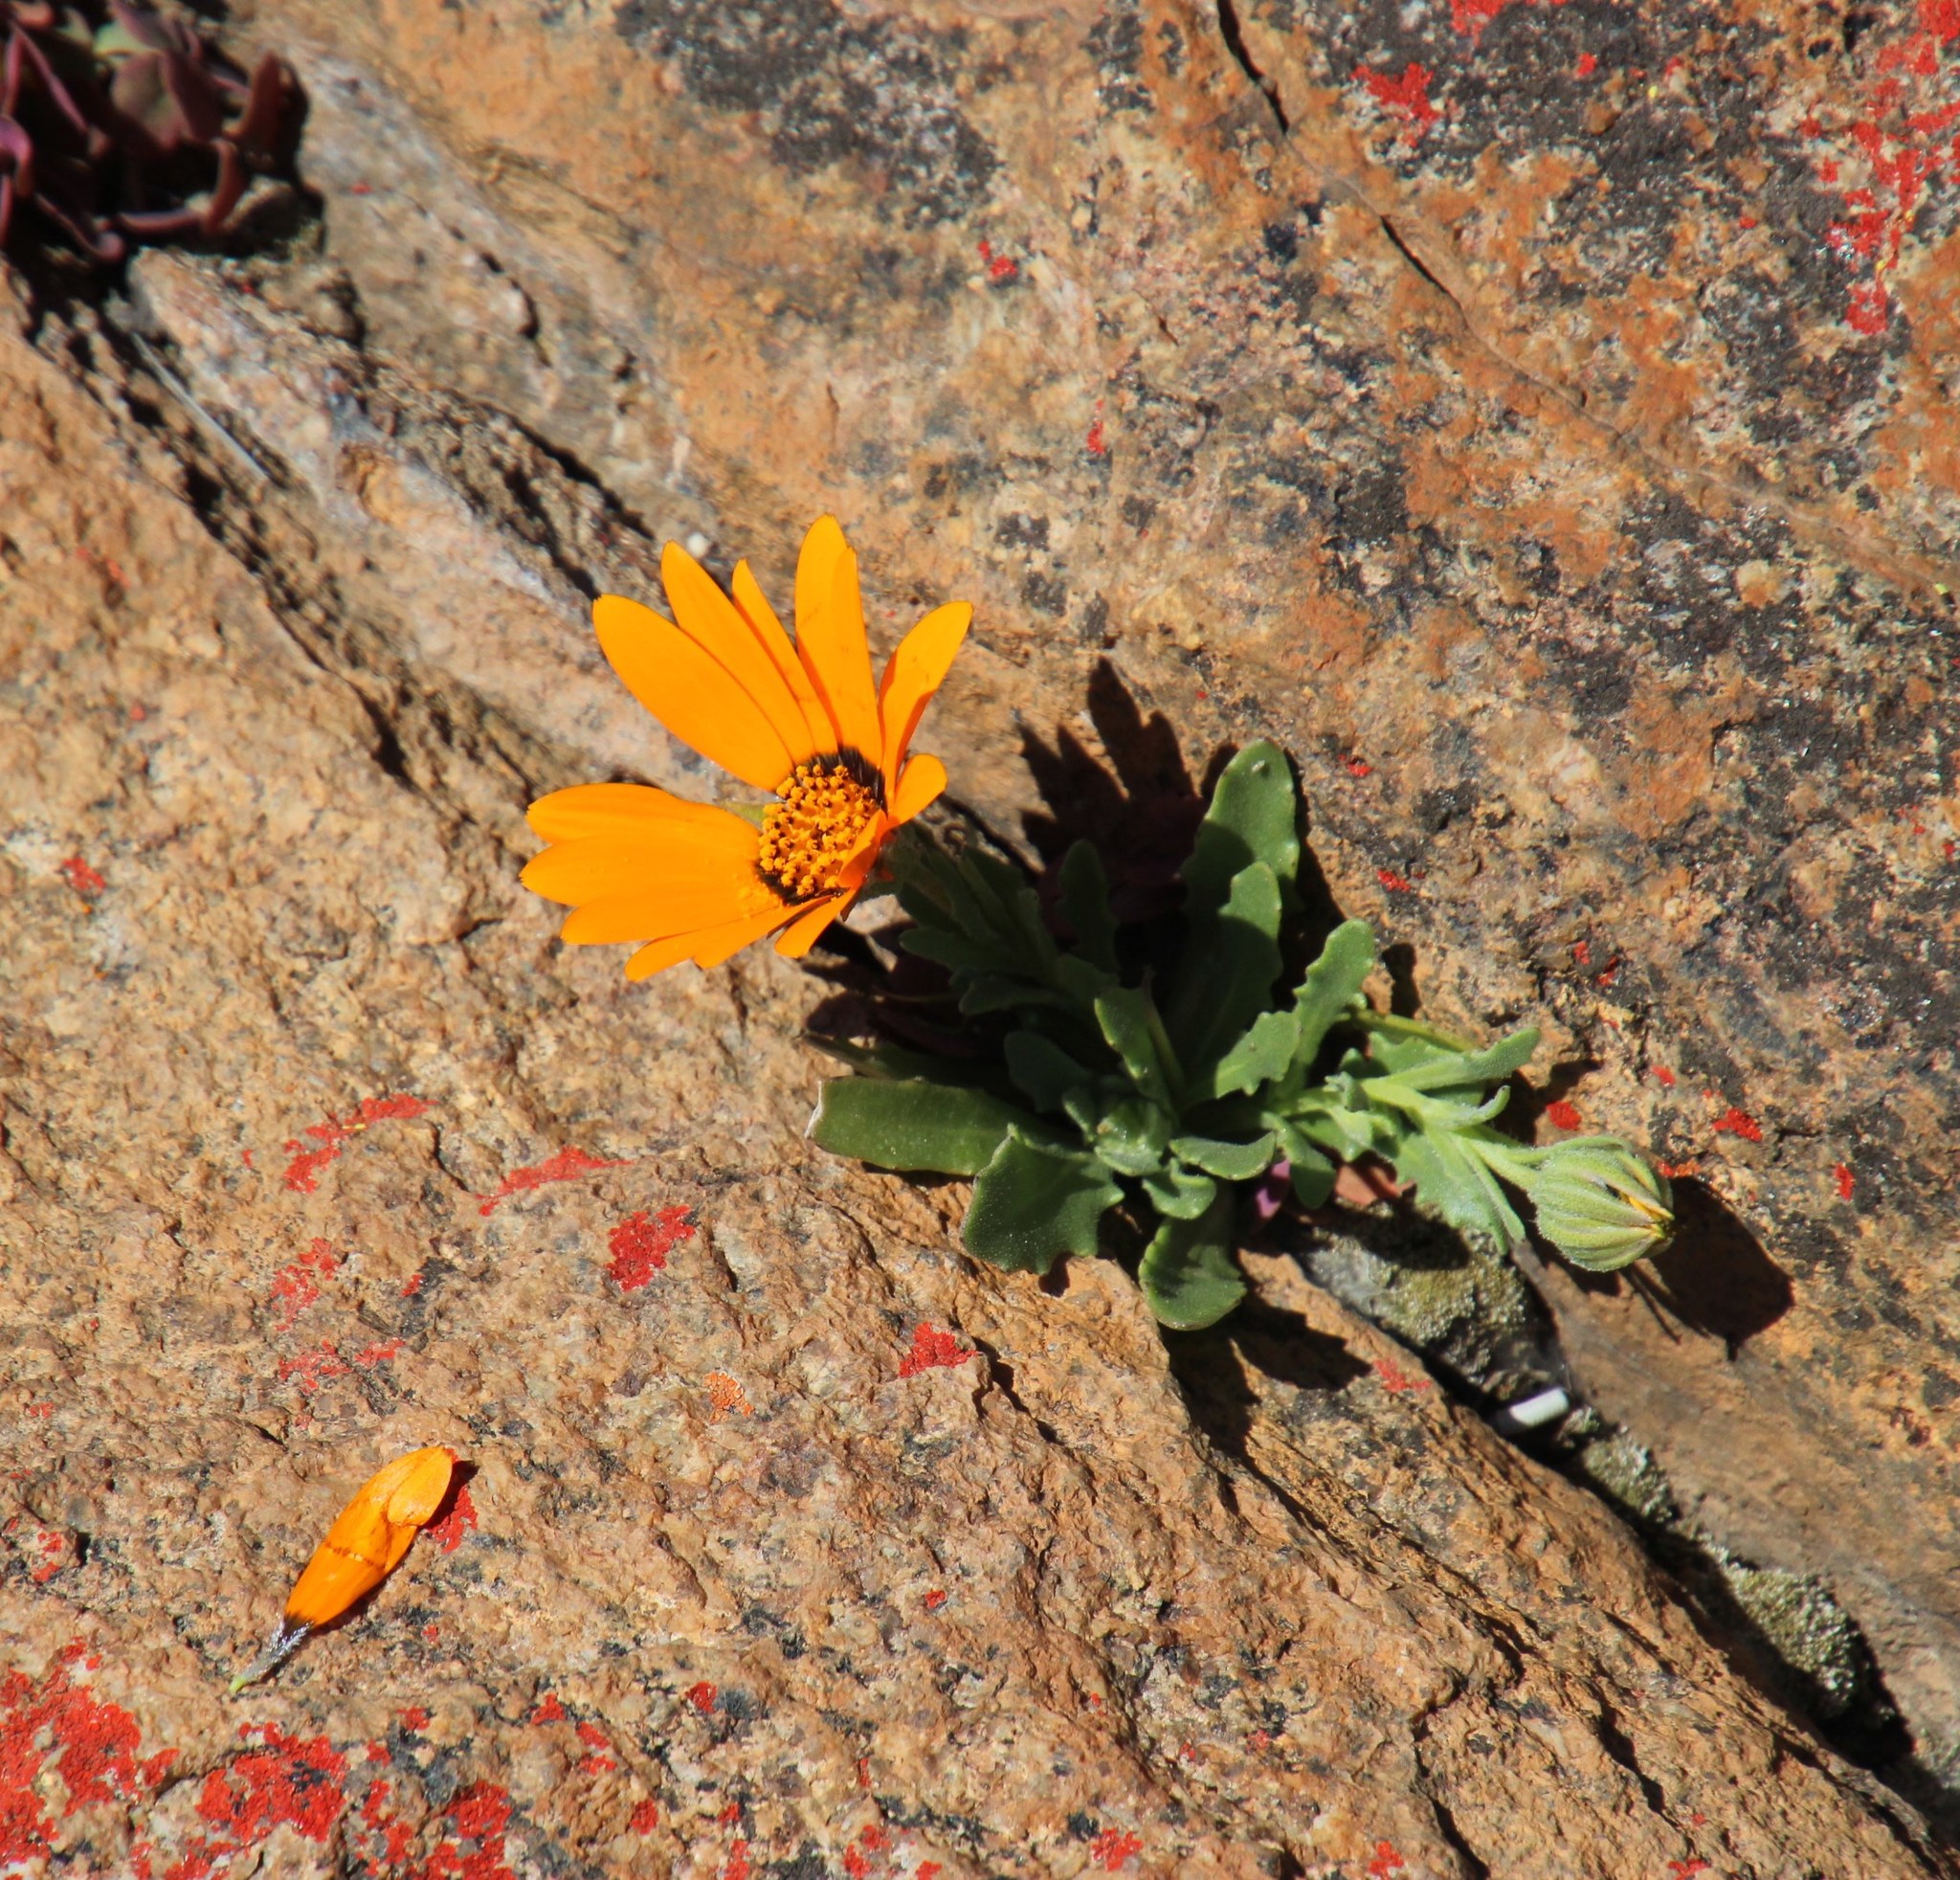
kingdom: Plantae
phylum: Tracheophyta
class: Magnoliopsida
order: Asterales
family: Asteraceae
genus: Dimorphotheca
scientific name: Dimorphotheca sinuata
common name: Glandular cape marigold
